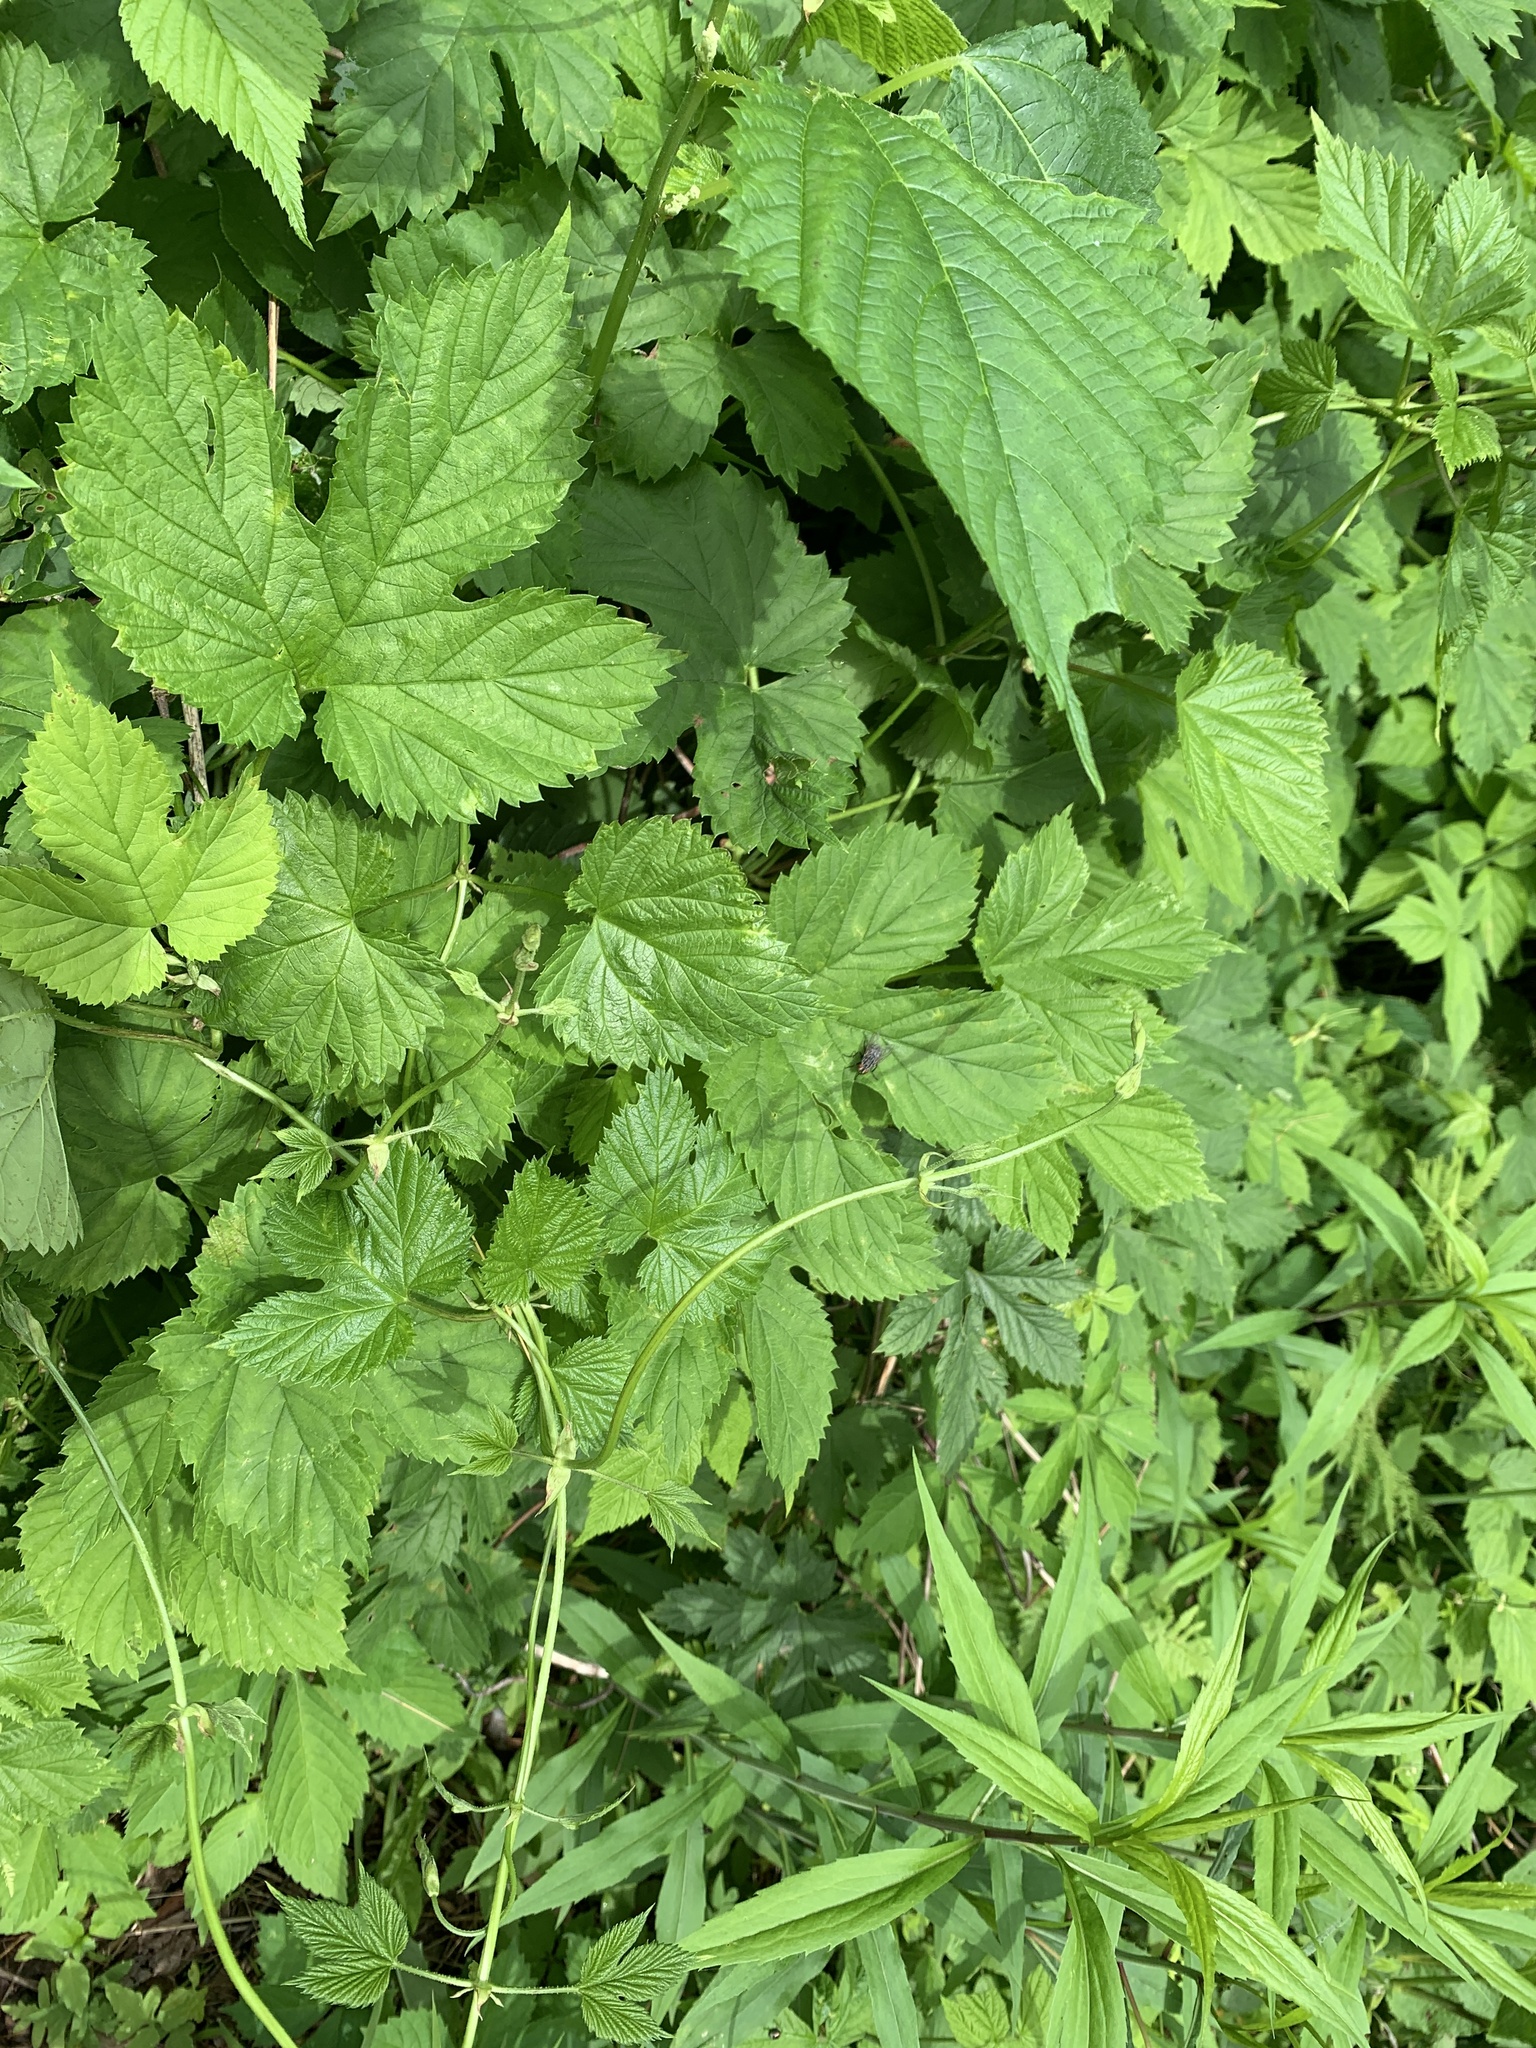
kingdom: Plantae
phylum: Tracheophyta
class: Magnoliopsida
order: Rosales
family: Cannabaceae
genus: Humulus
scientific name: Humulus lupulus
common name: Hop
